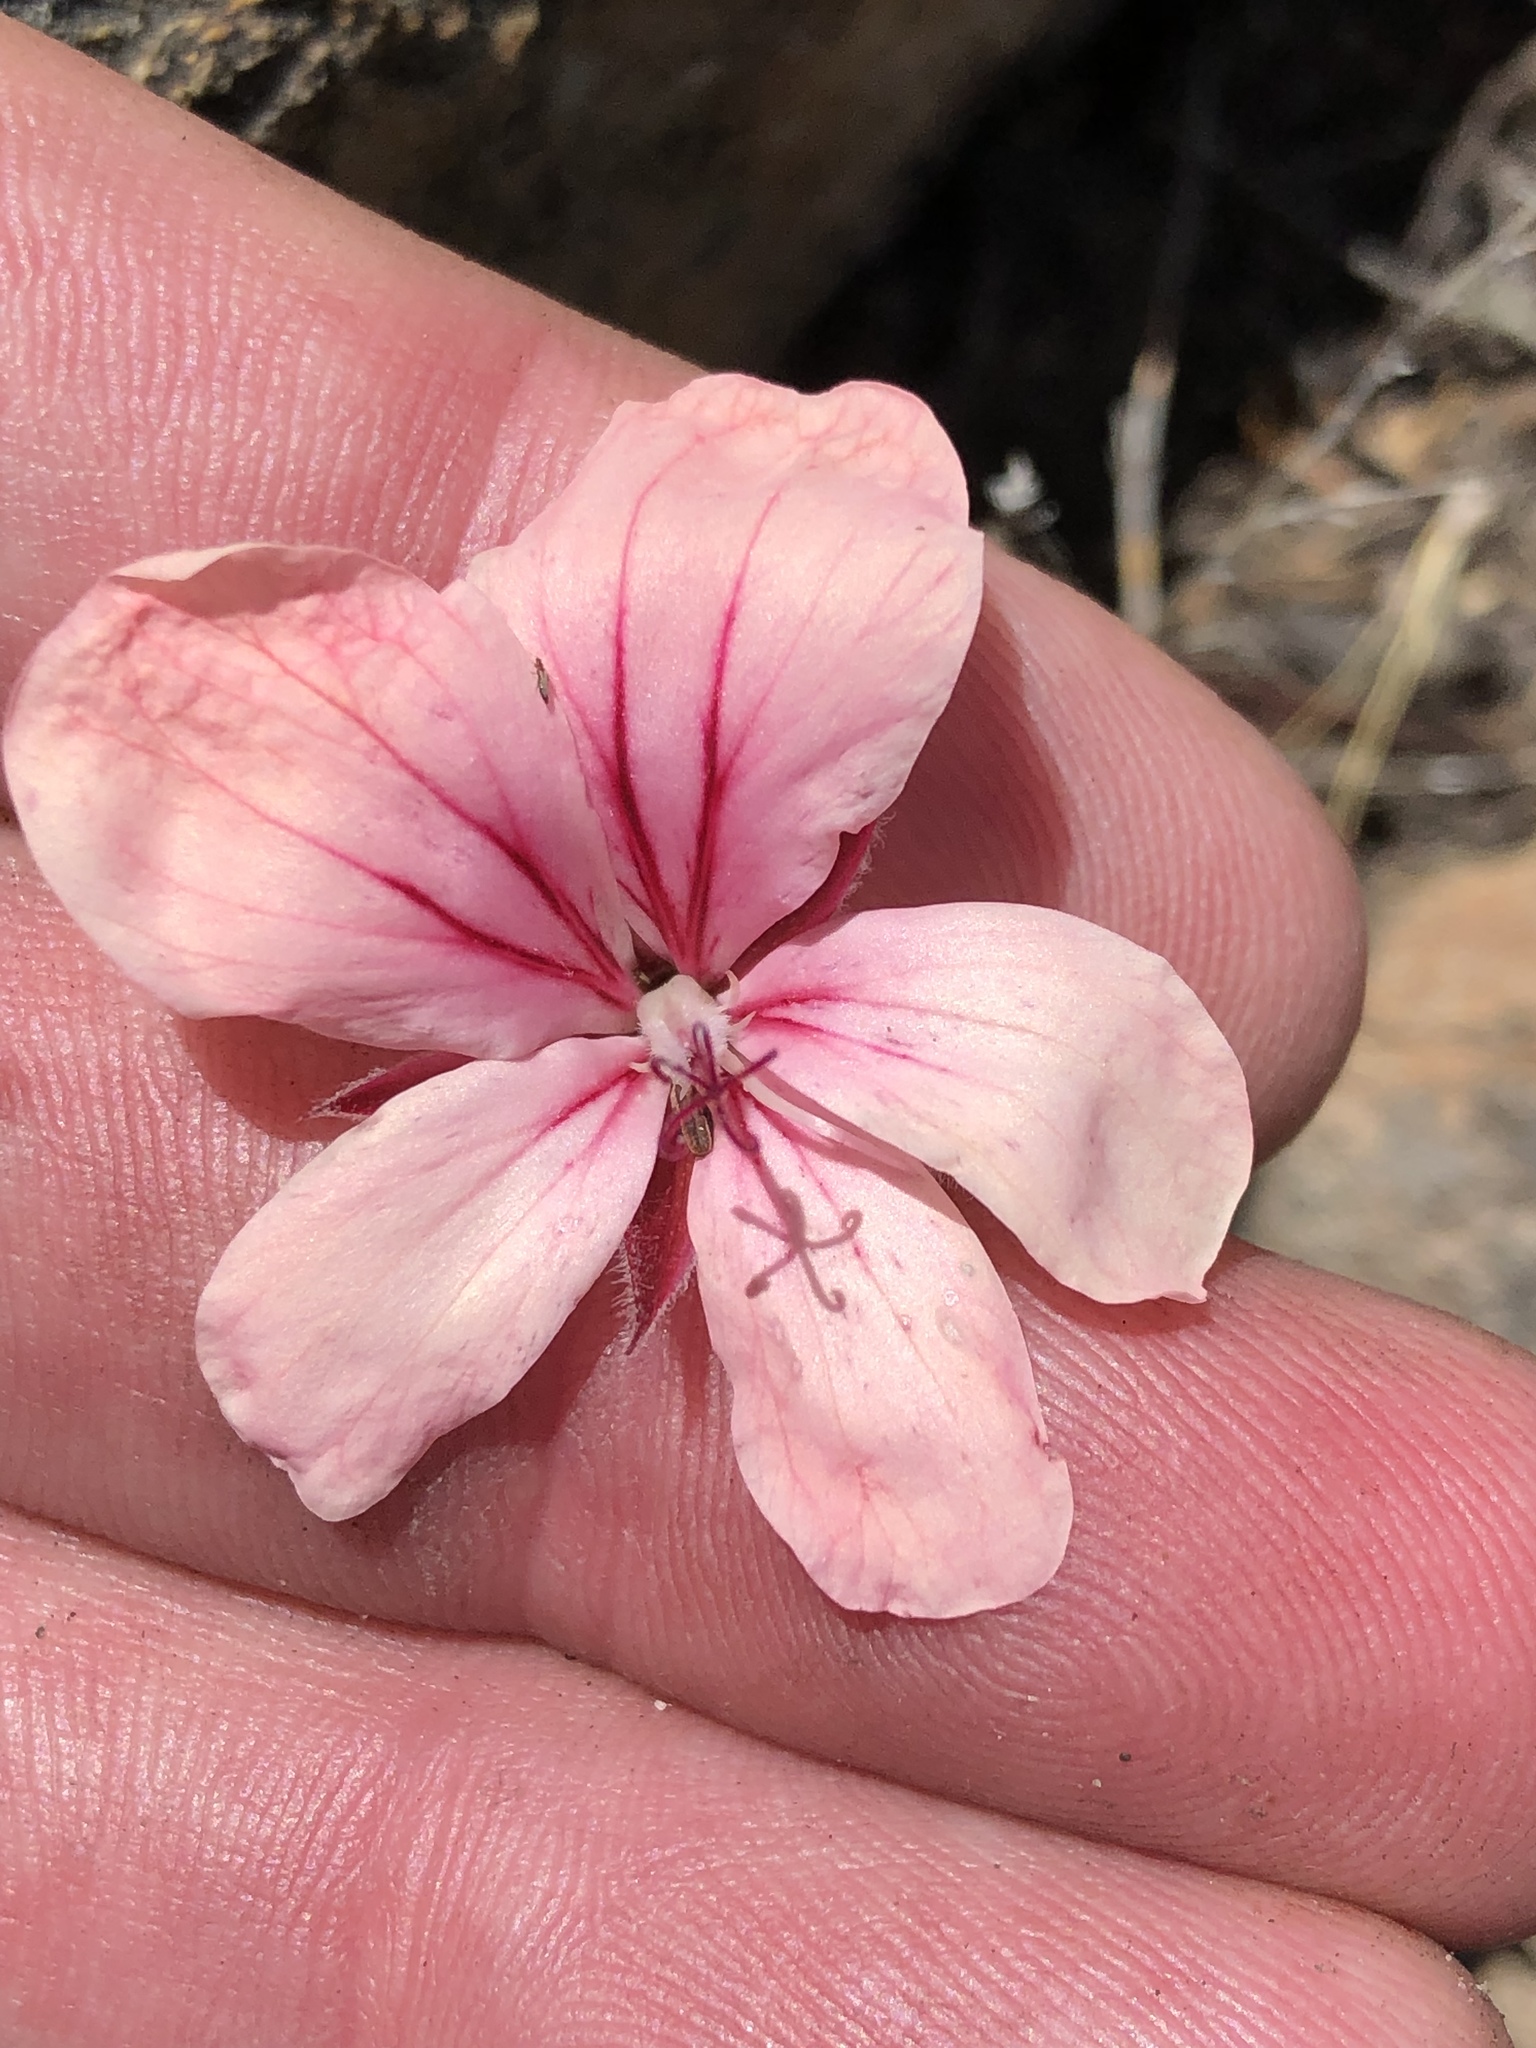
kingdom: Plantae
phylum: Tracheophyta
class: Magnoliopsida
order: Geraniales
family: Geraniaceae
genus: Pelargonium
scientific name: Pelargonium radiatum
